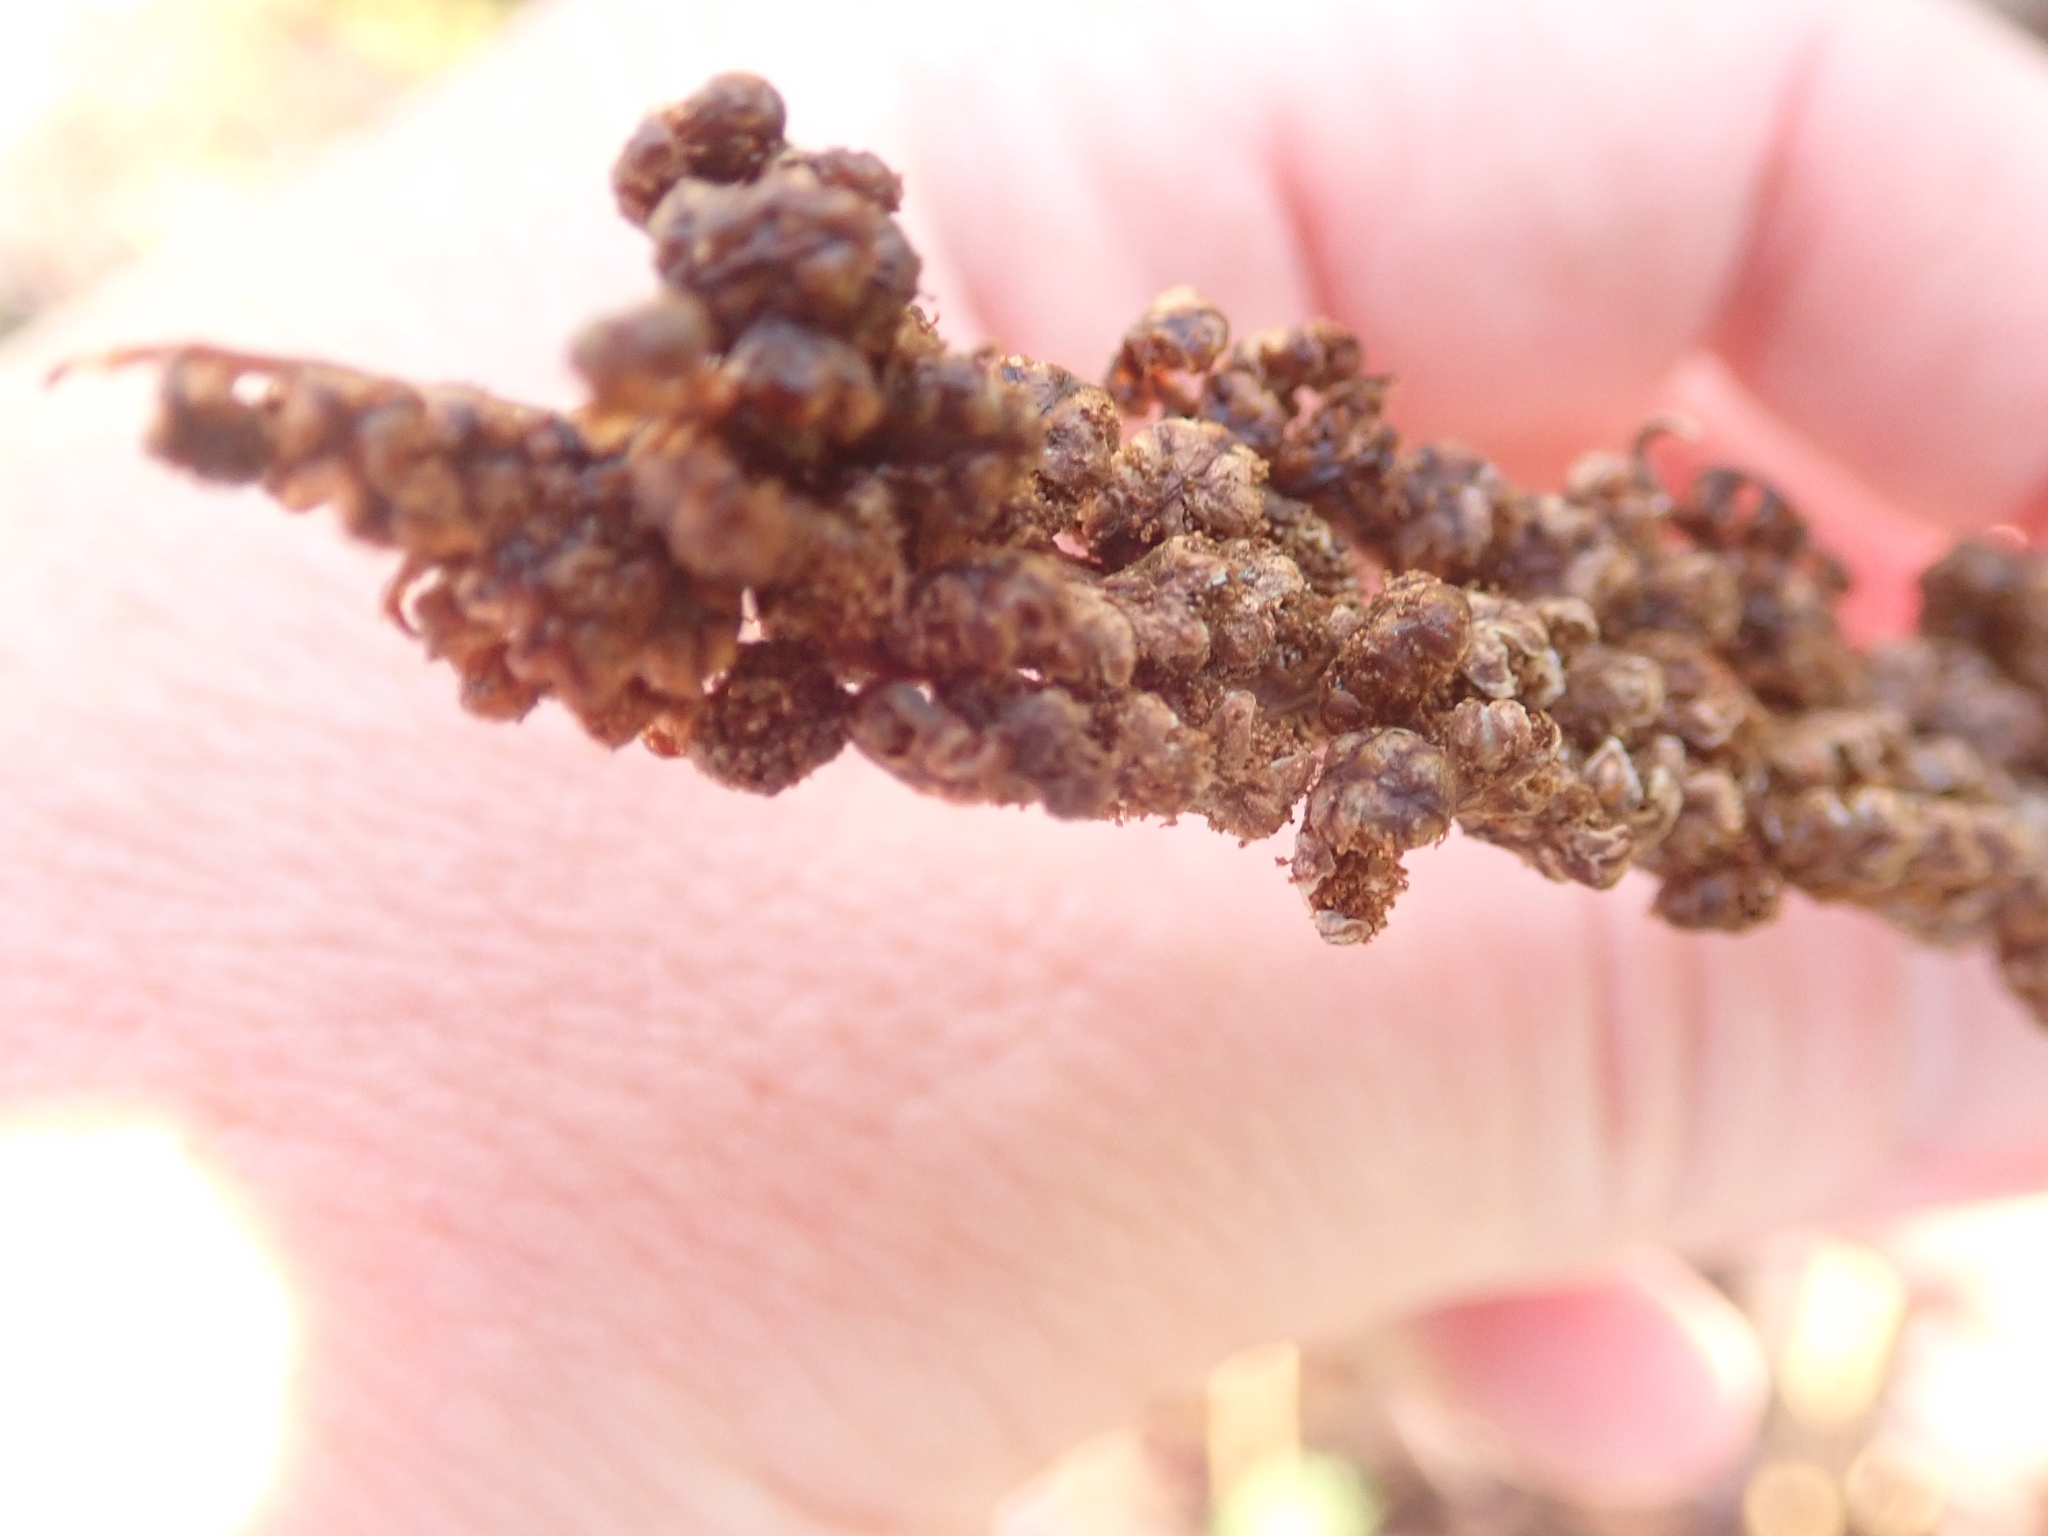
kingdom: Plantae
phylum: Tracheophyta
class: Polypodiopsida
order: Polypodiales
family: Onocleaceae
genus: Onoclea
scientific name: Onoclea sensibilis
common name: Sensitive fern
